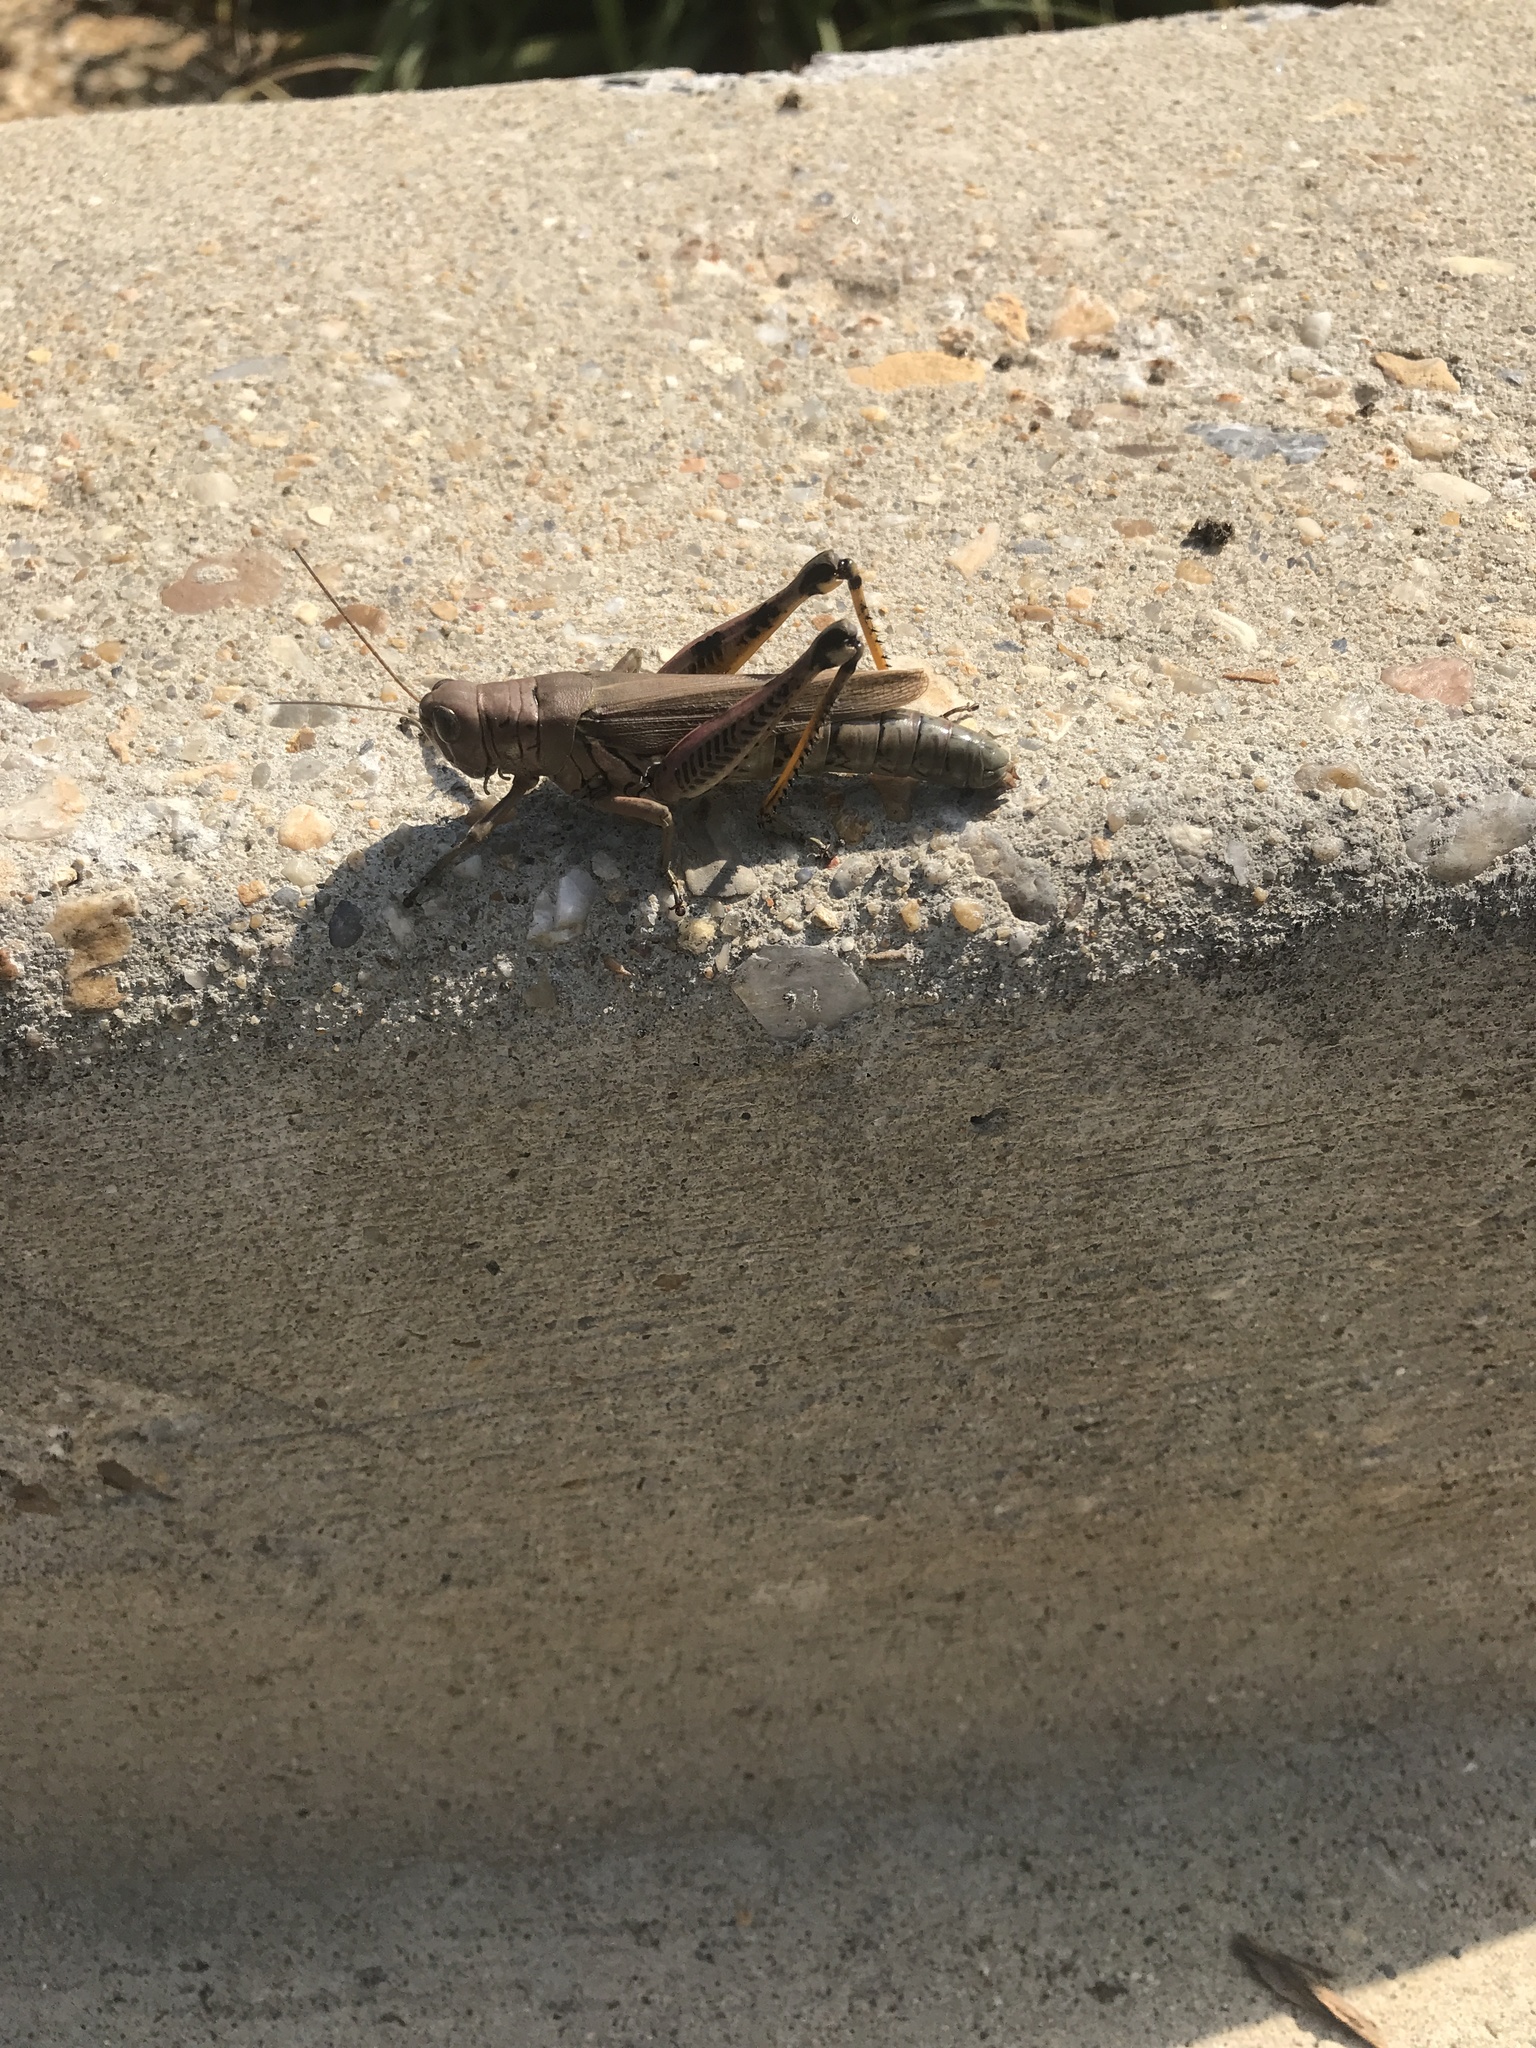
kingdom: Animalia
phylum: Arthropoda
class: Insecta
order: Orthoptera
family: Acrididae
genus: Melanoplus
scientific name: Melanoplus differentialis
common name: Differential grasshopper
